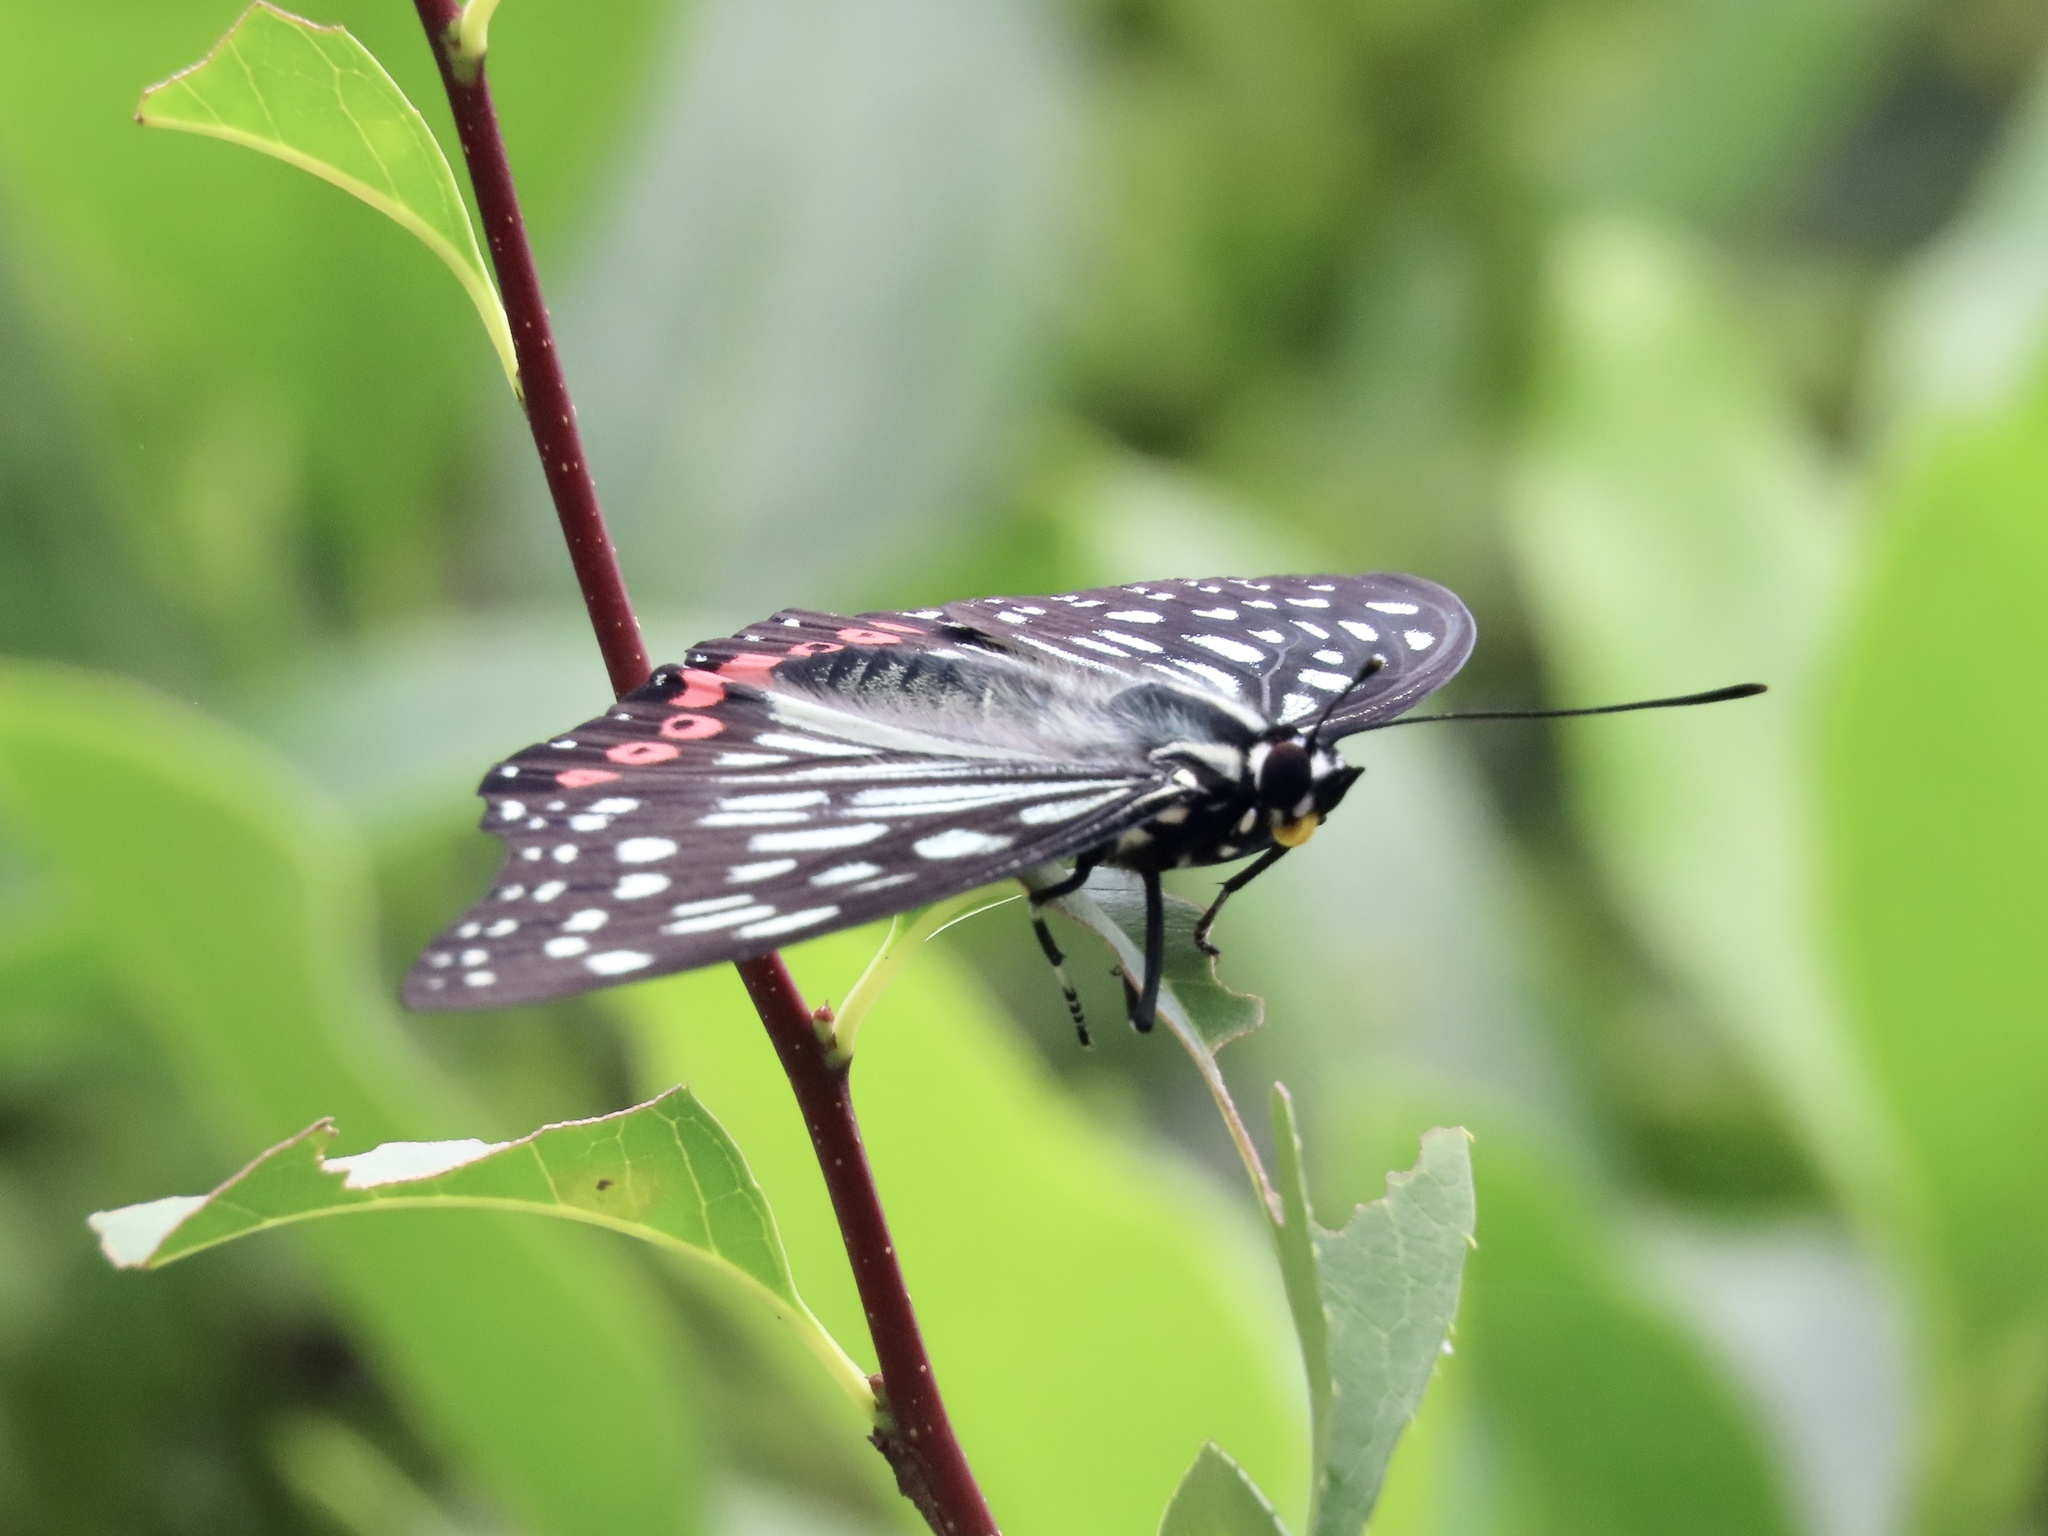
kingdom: Animalia
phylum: Arthropoda
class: Insecta
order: Lepidoptera
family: Nymphalidae
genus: Hestina
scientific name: Hestina assimilis
